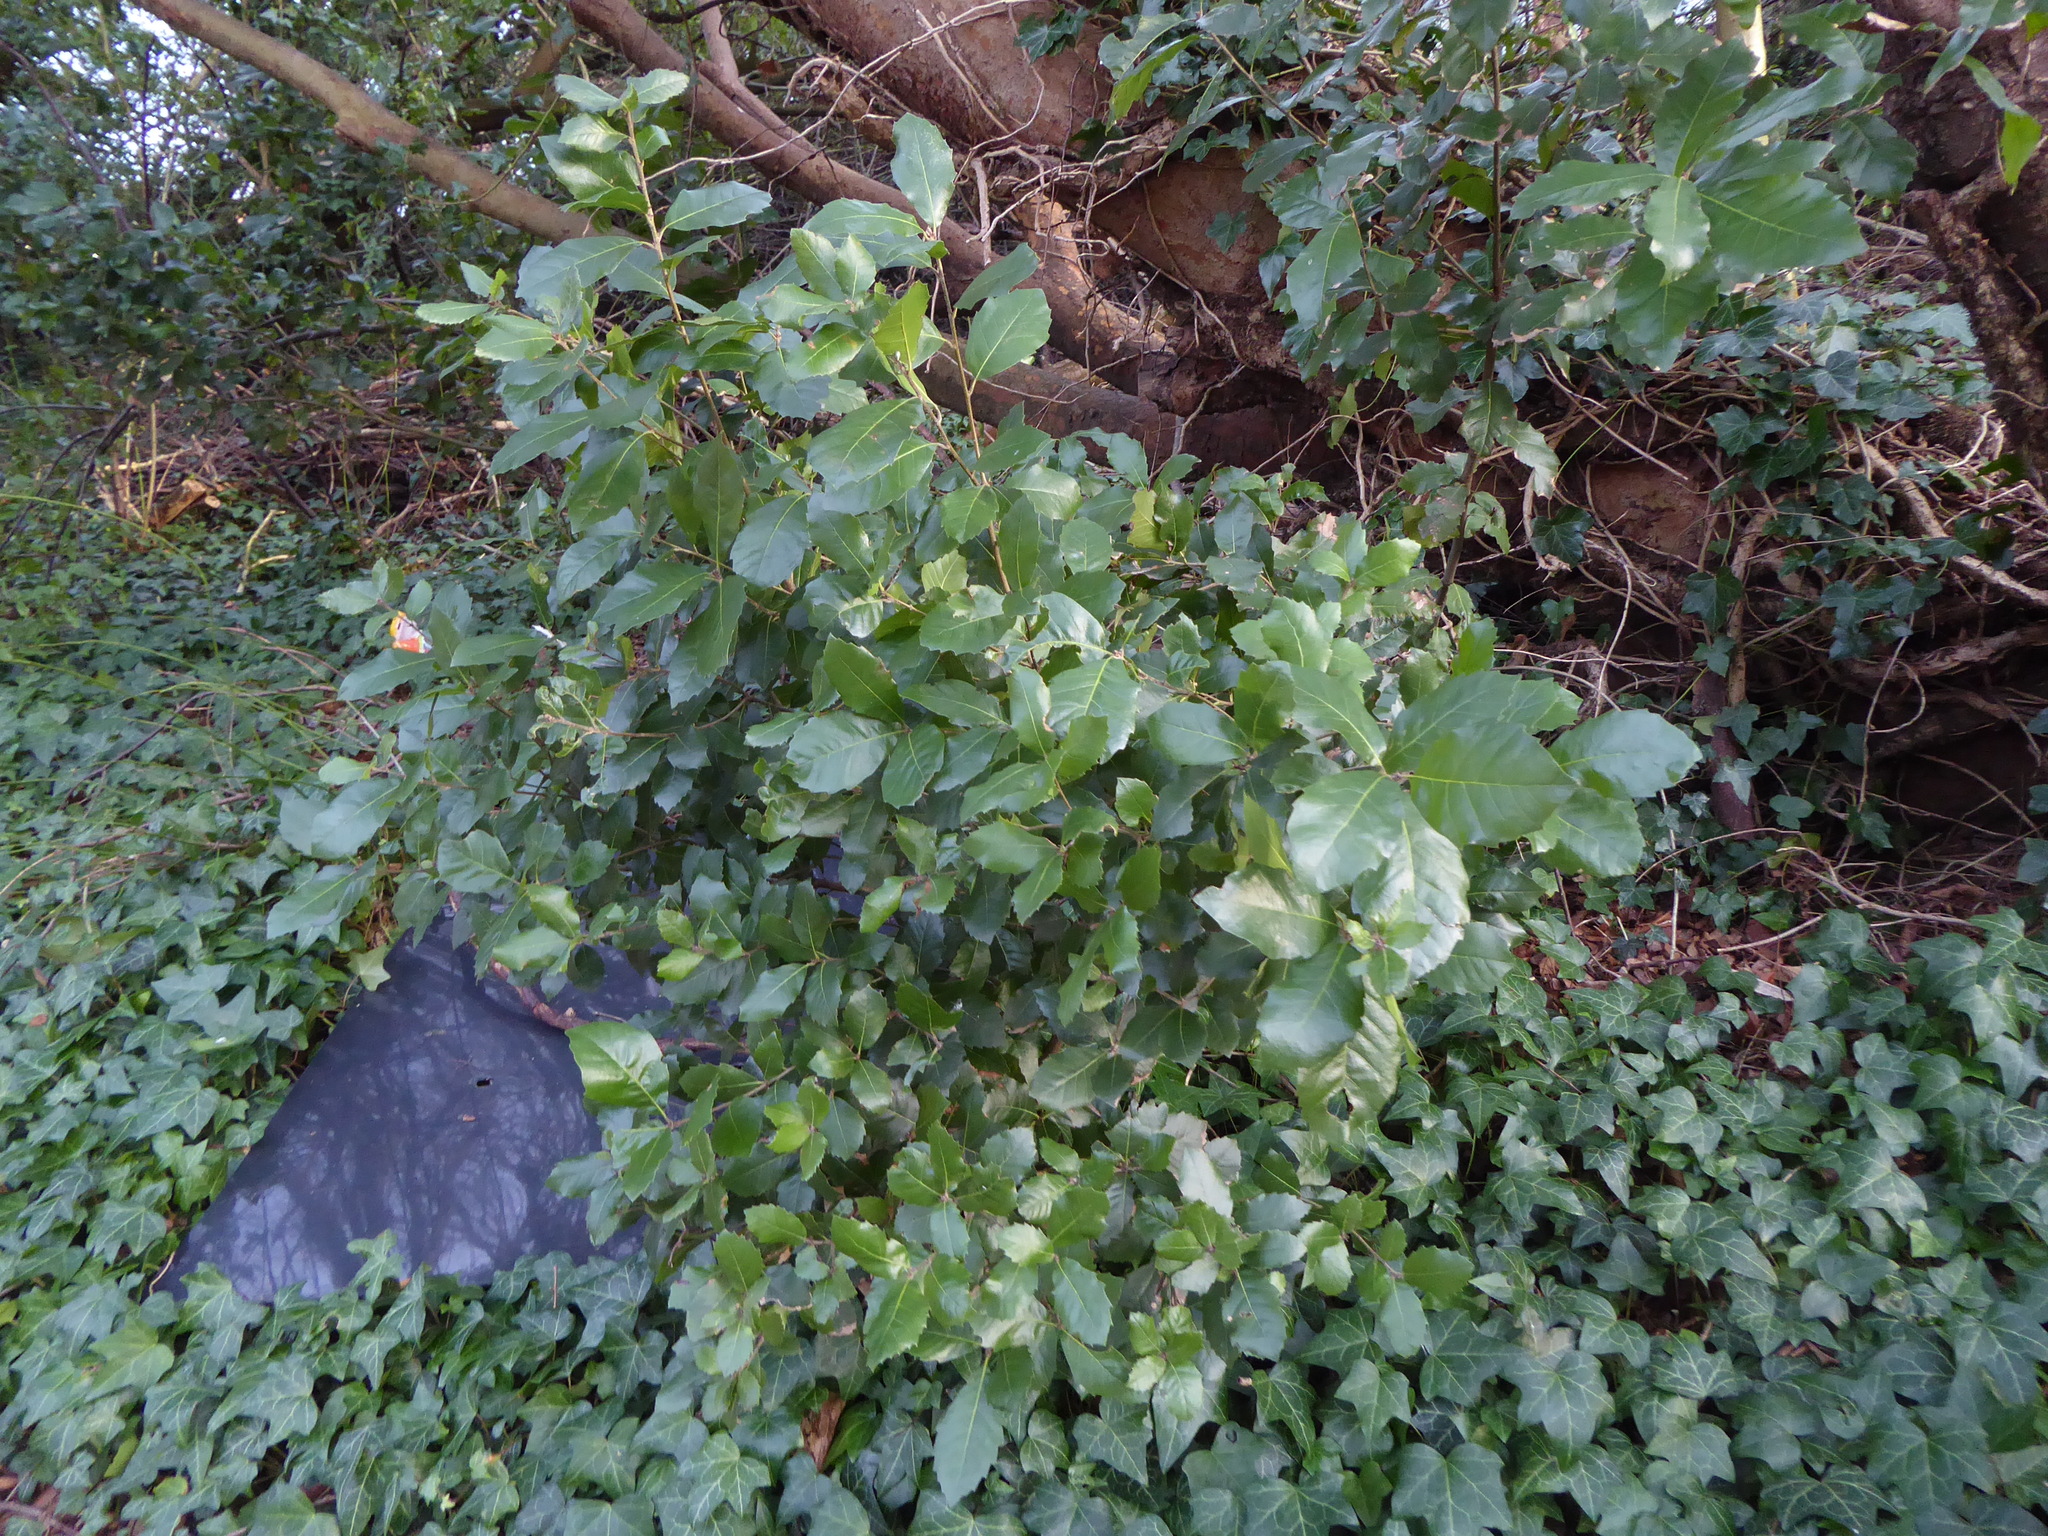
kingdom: Plantae
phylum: Tracheophyta
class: Magnoliopsida
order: Fagales
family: Fagaceae
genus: Quercus
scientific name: Quercus ilex
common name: Evergreen oak
